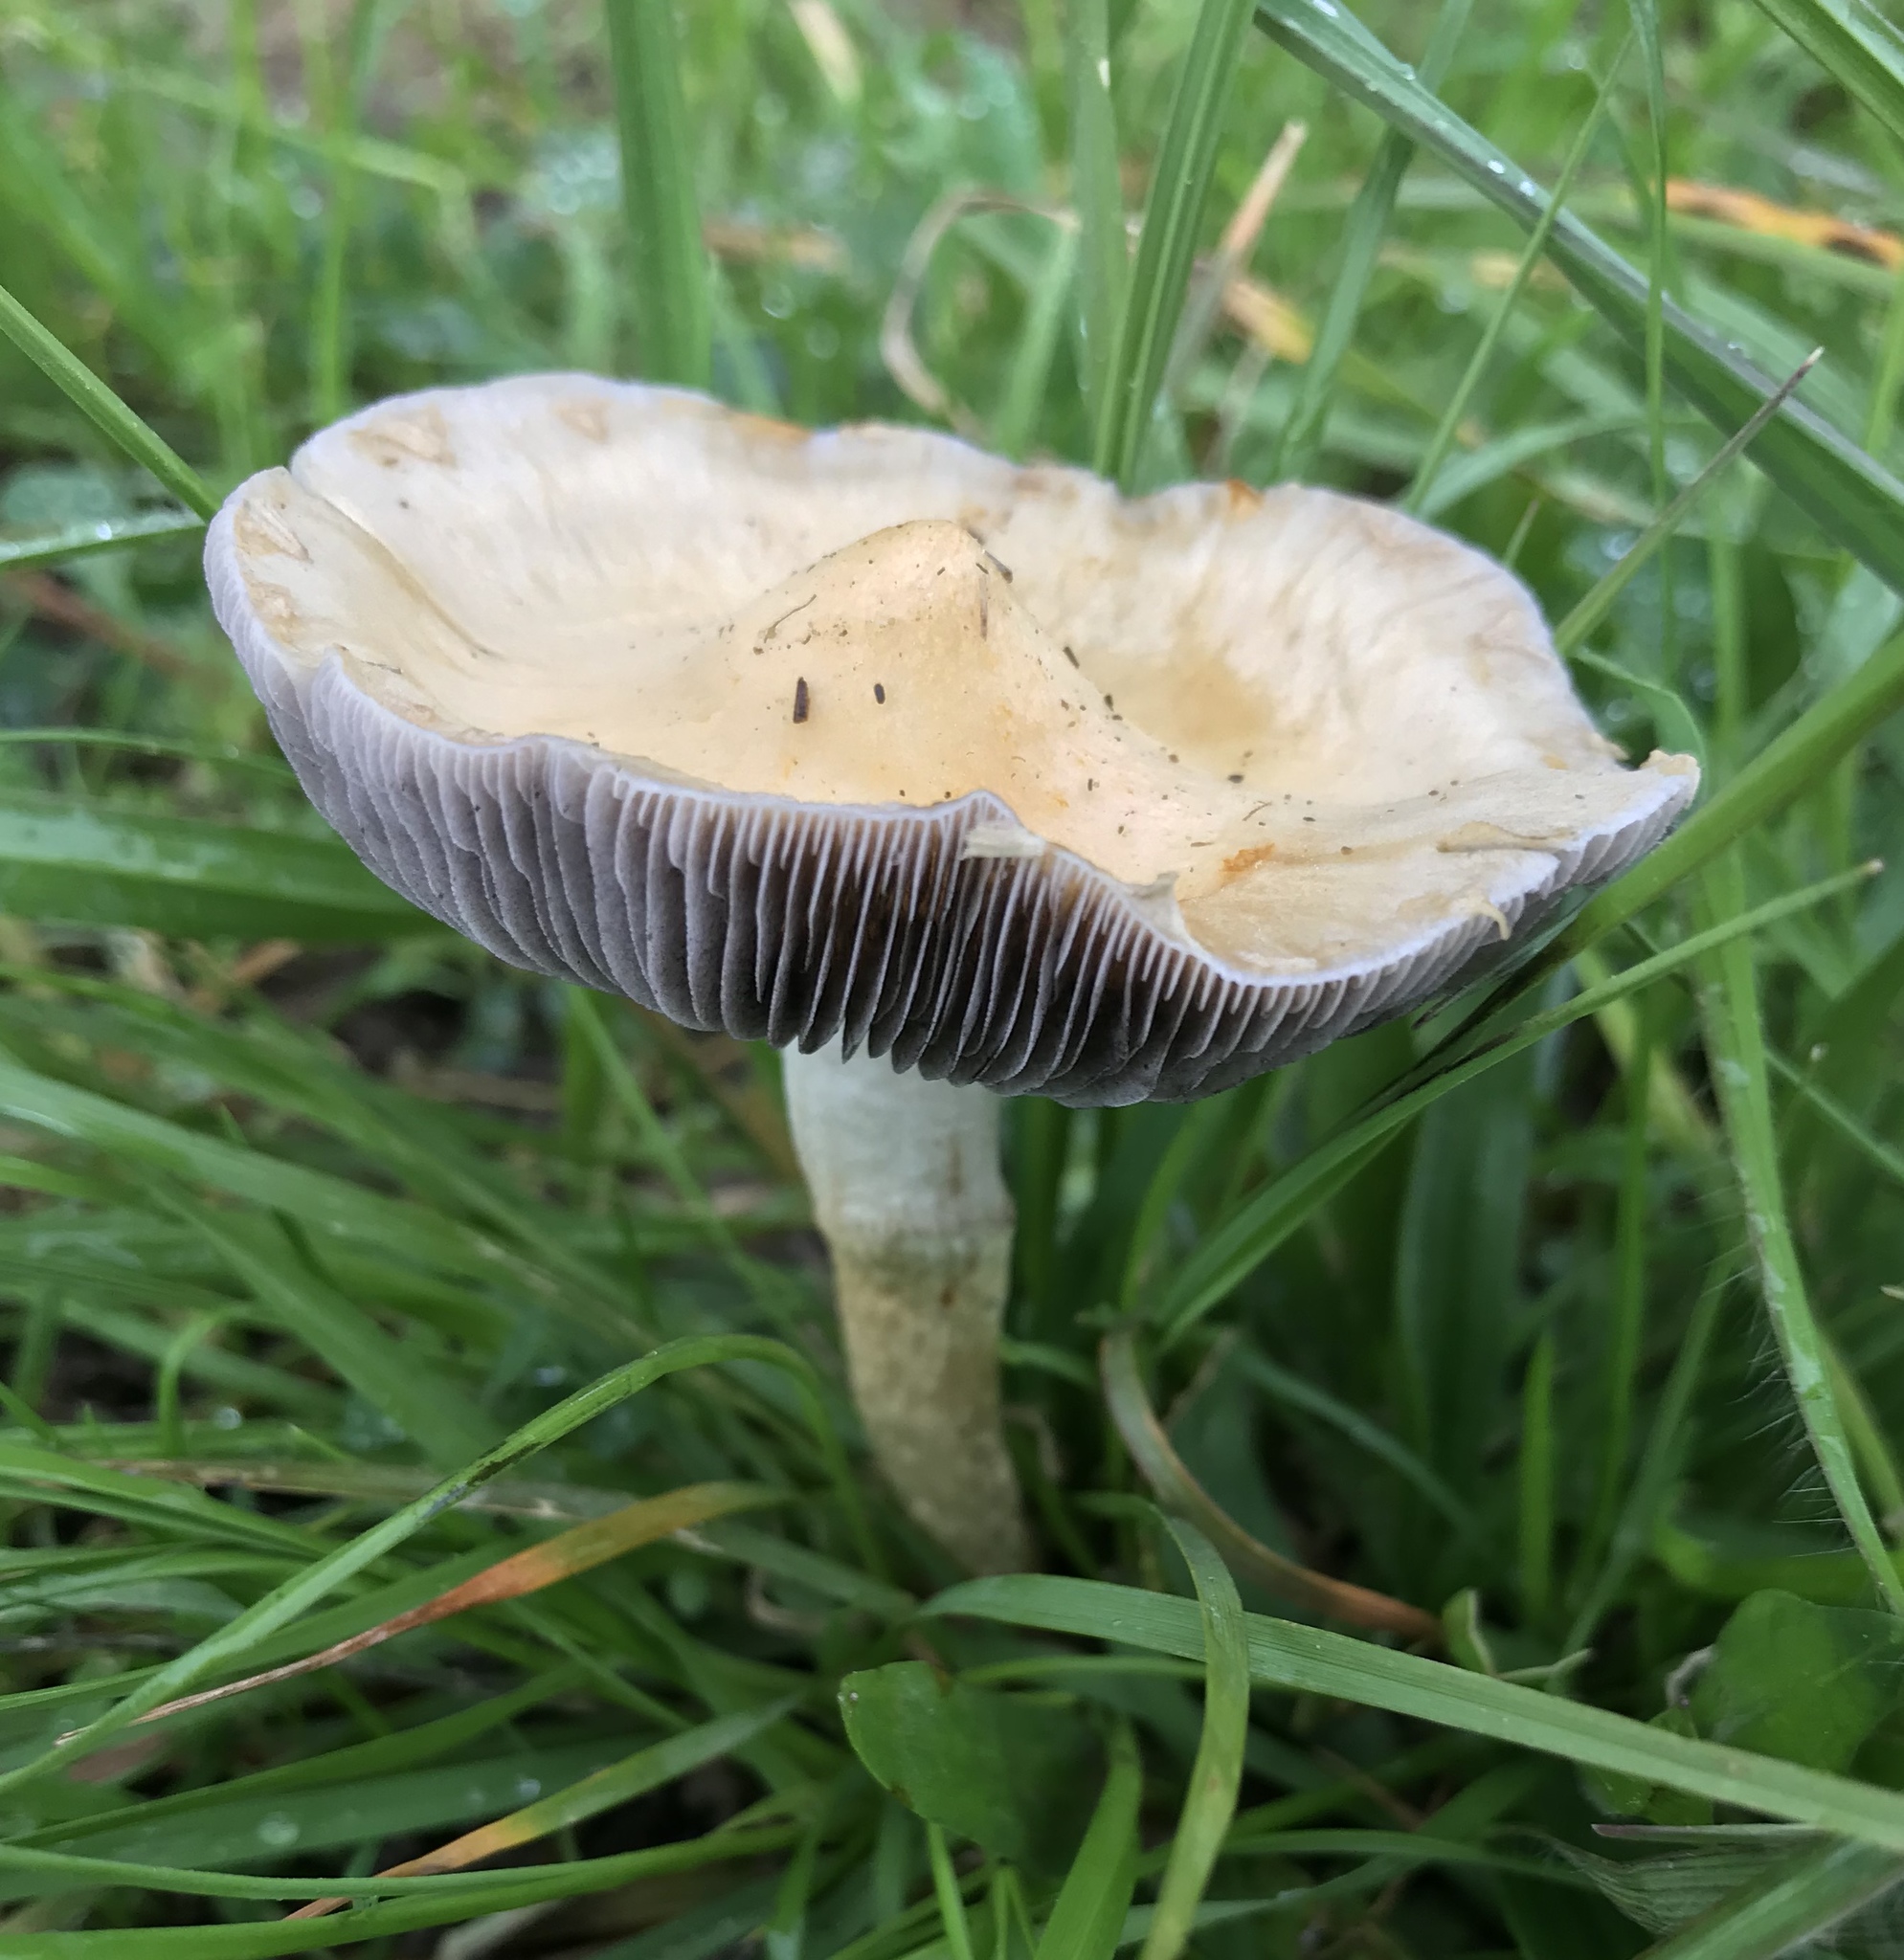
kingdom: Fungi
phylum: Basidiomycota
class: Agaricomycetes
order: Agaricales
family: Strophariaceae
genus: Leratiomyces
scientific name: Leratiomyces percevalii
